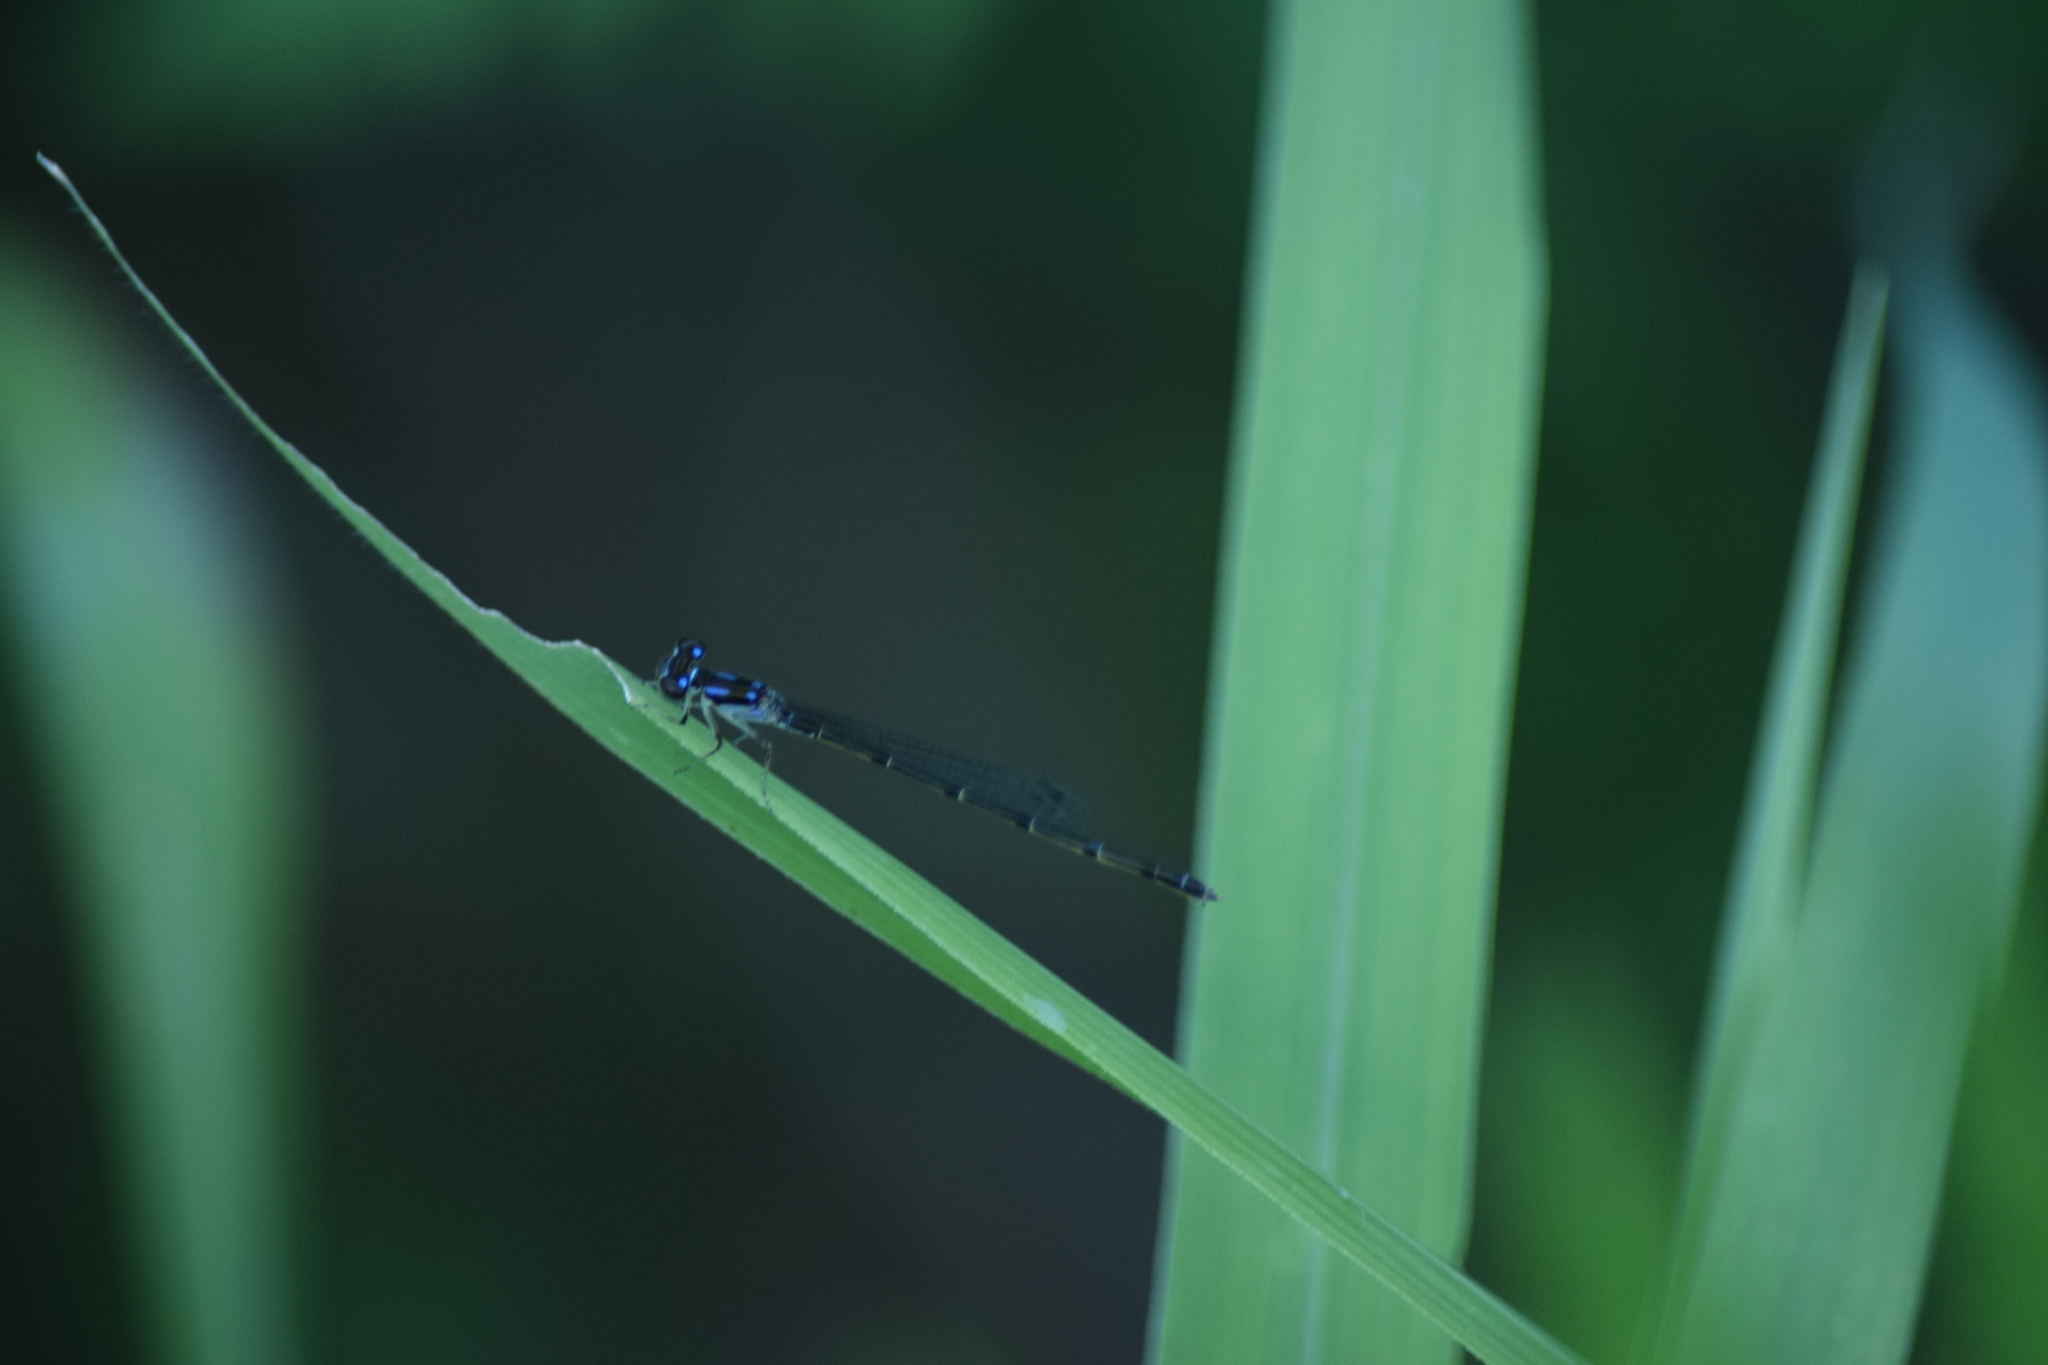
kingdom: Animalia
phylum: Arthropoda
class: Insecta
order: Odonata
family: Coenagrionidae
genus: Ischnura
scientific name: Ischnura posita
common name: Fragile forktail
